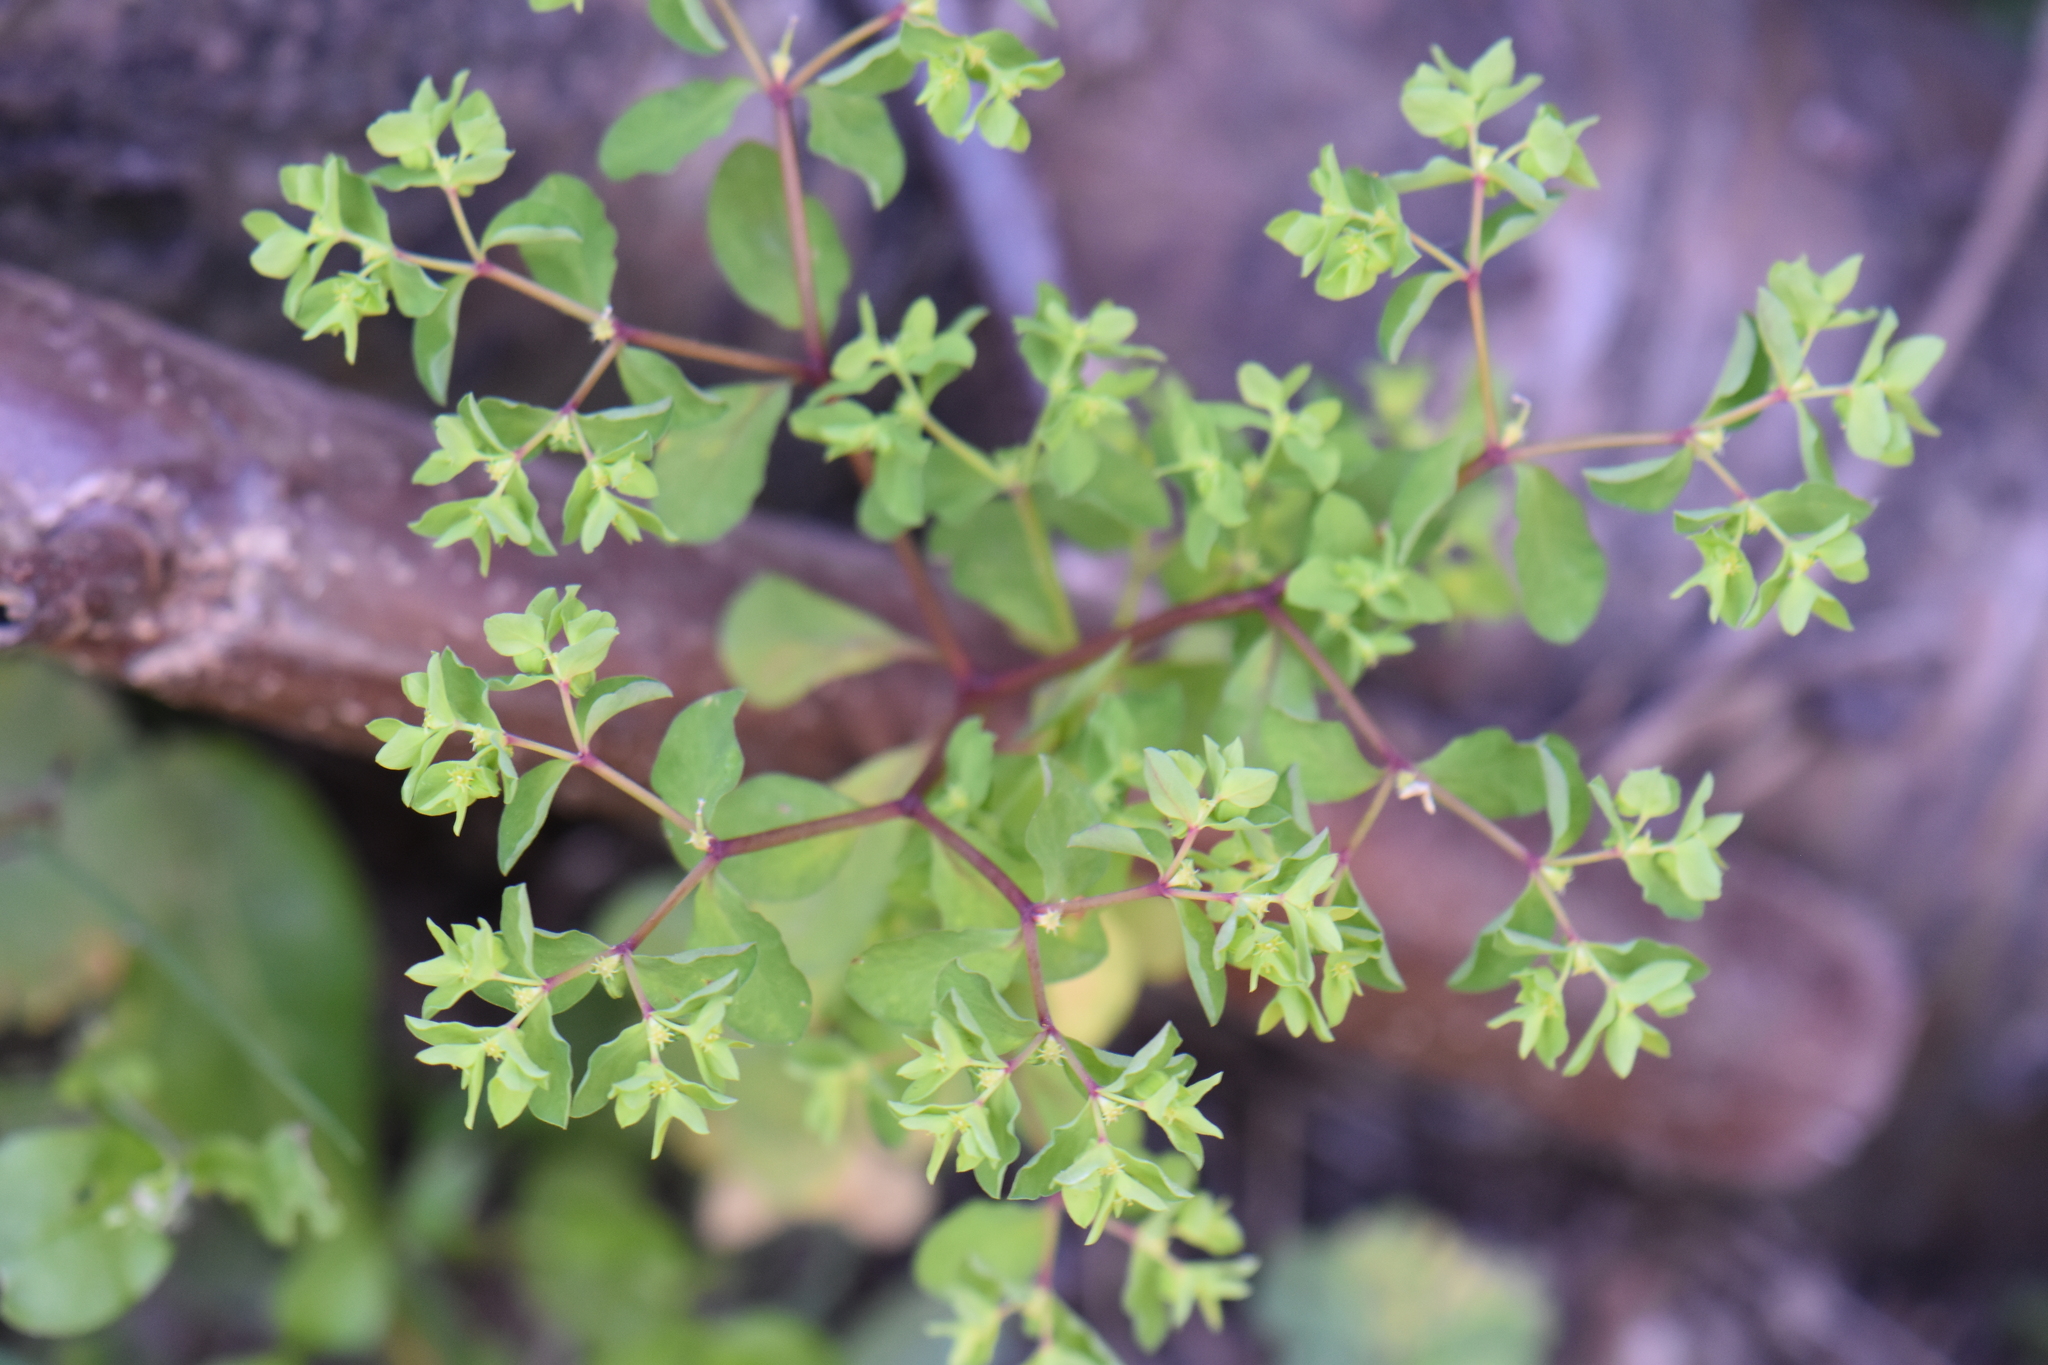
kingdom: Plantae
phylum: Tracheophyta
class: Magnoliopsida
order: Malpighiales
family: Euphorbiaceae
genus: Euphorbia
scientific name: Euphorbia peplus
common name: Petty spurge
